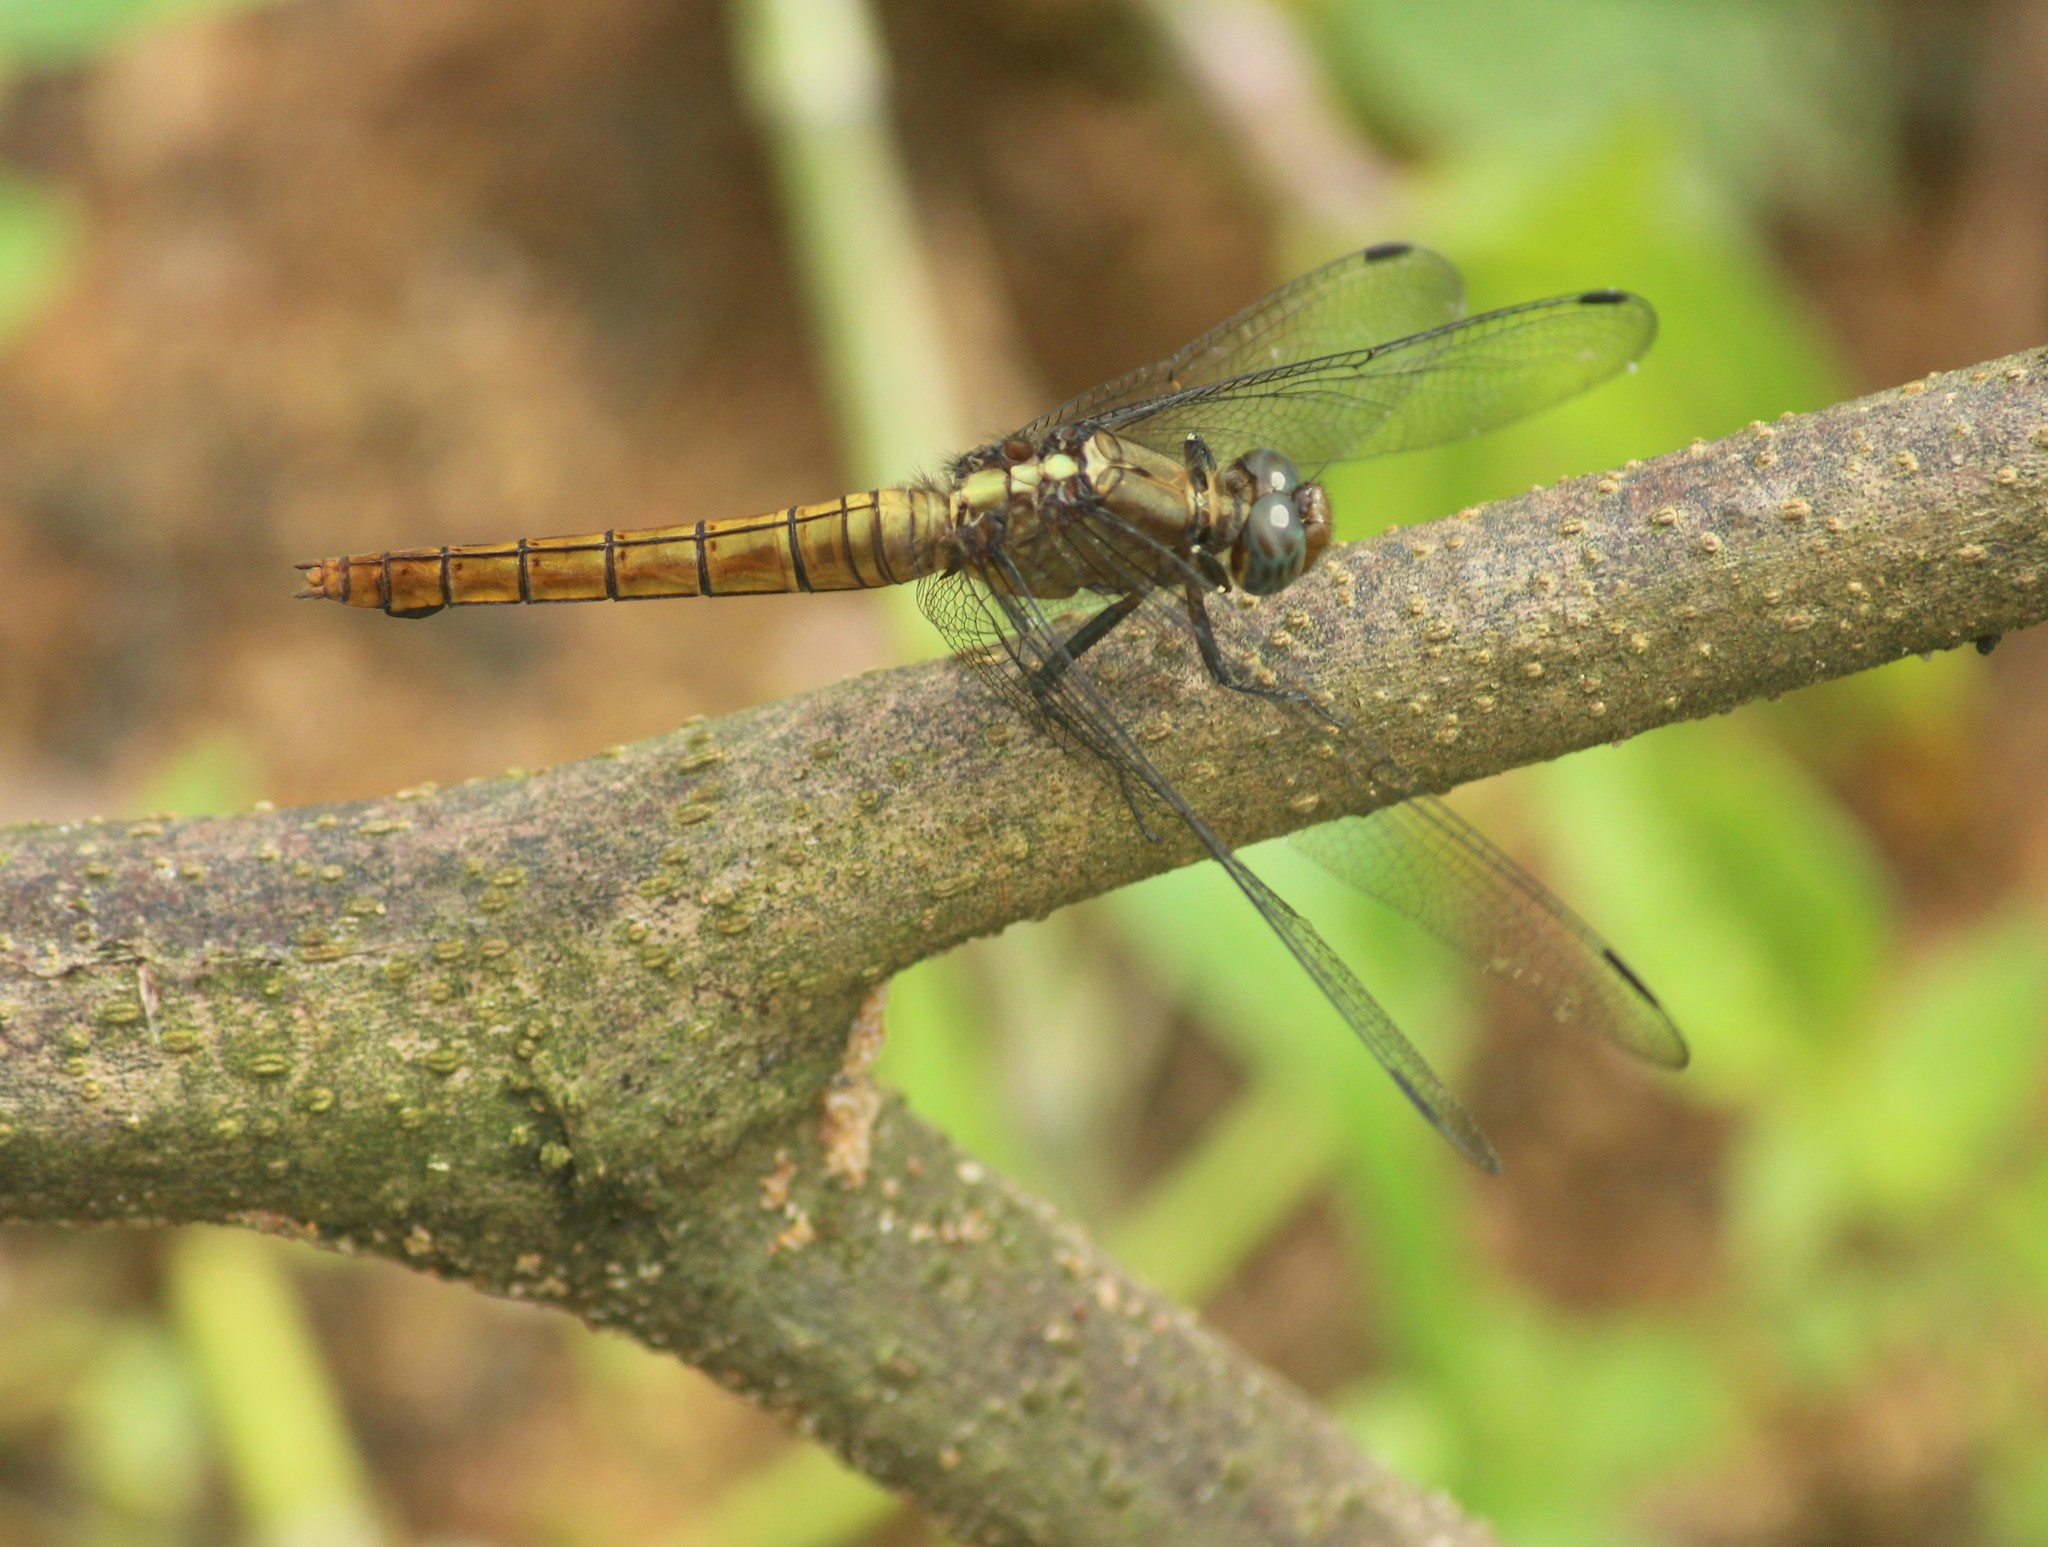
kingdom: Animalia
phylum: Arthropoda
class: Insecta
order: Odonata
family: Libellulidae
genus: Orthetrum
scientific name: Orthetrum pruinosum
